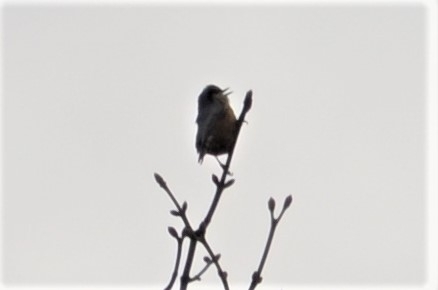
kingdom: Animalia
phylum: Chordata
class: Aves
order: Passeriformes
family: Sittidae
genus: Sitta
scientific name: Sitta europaea
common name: Eurasian nuthatch
